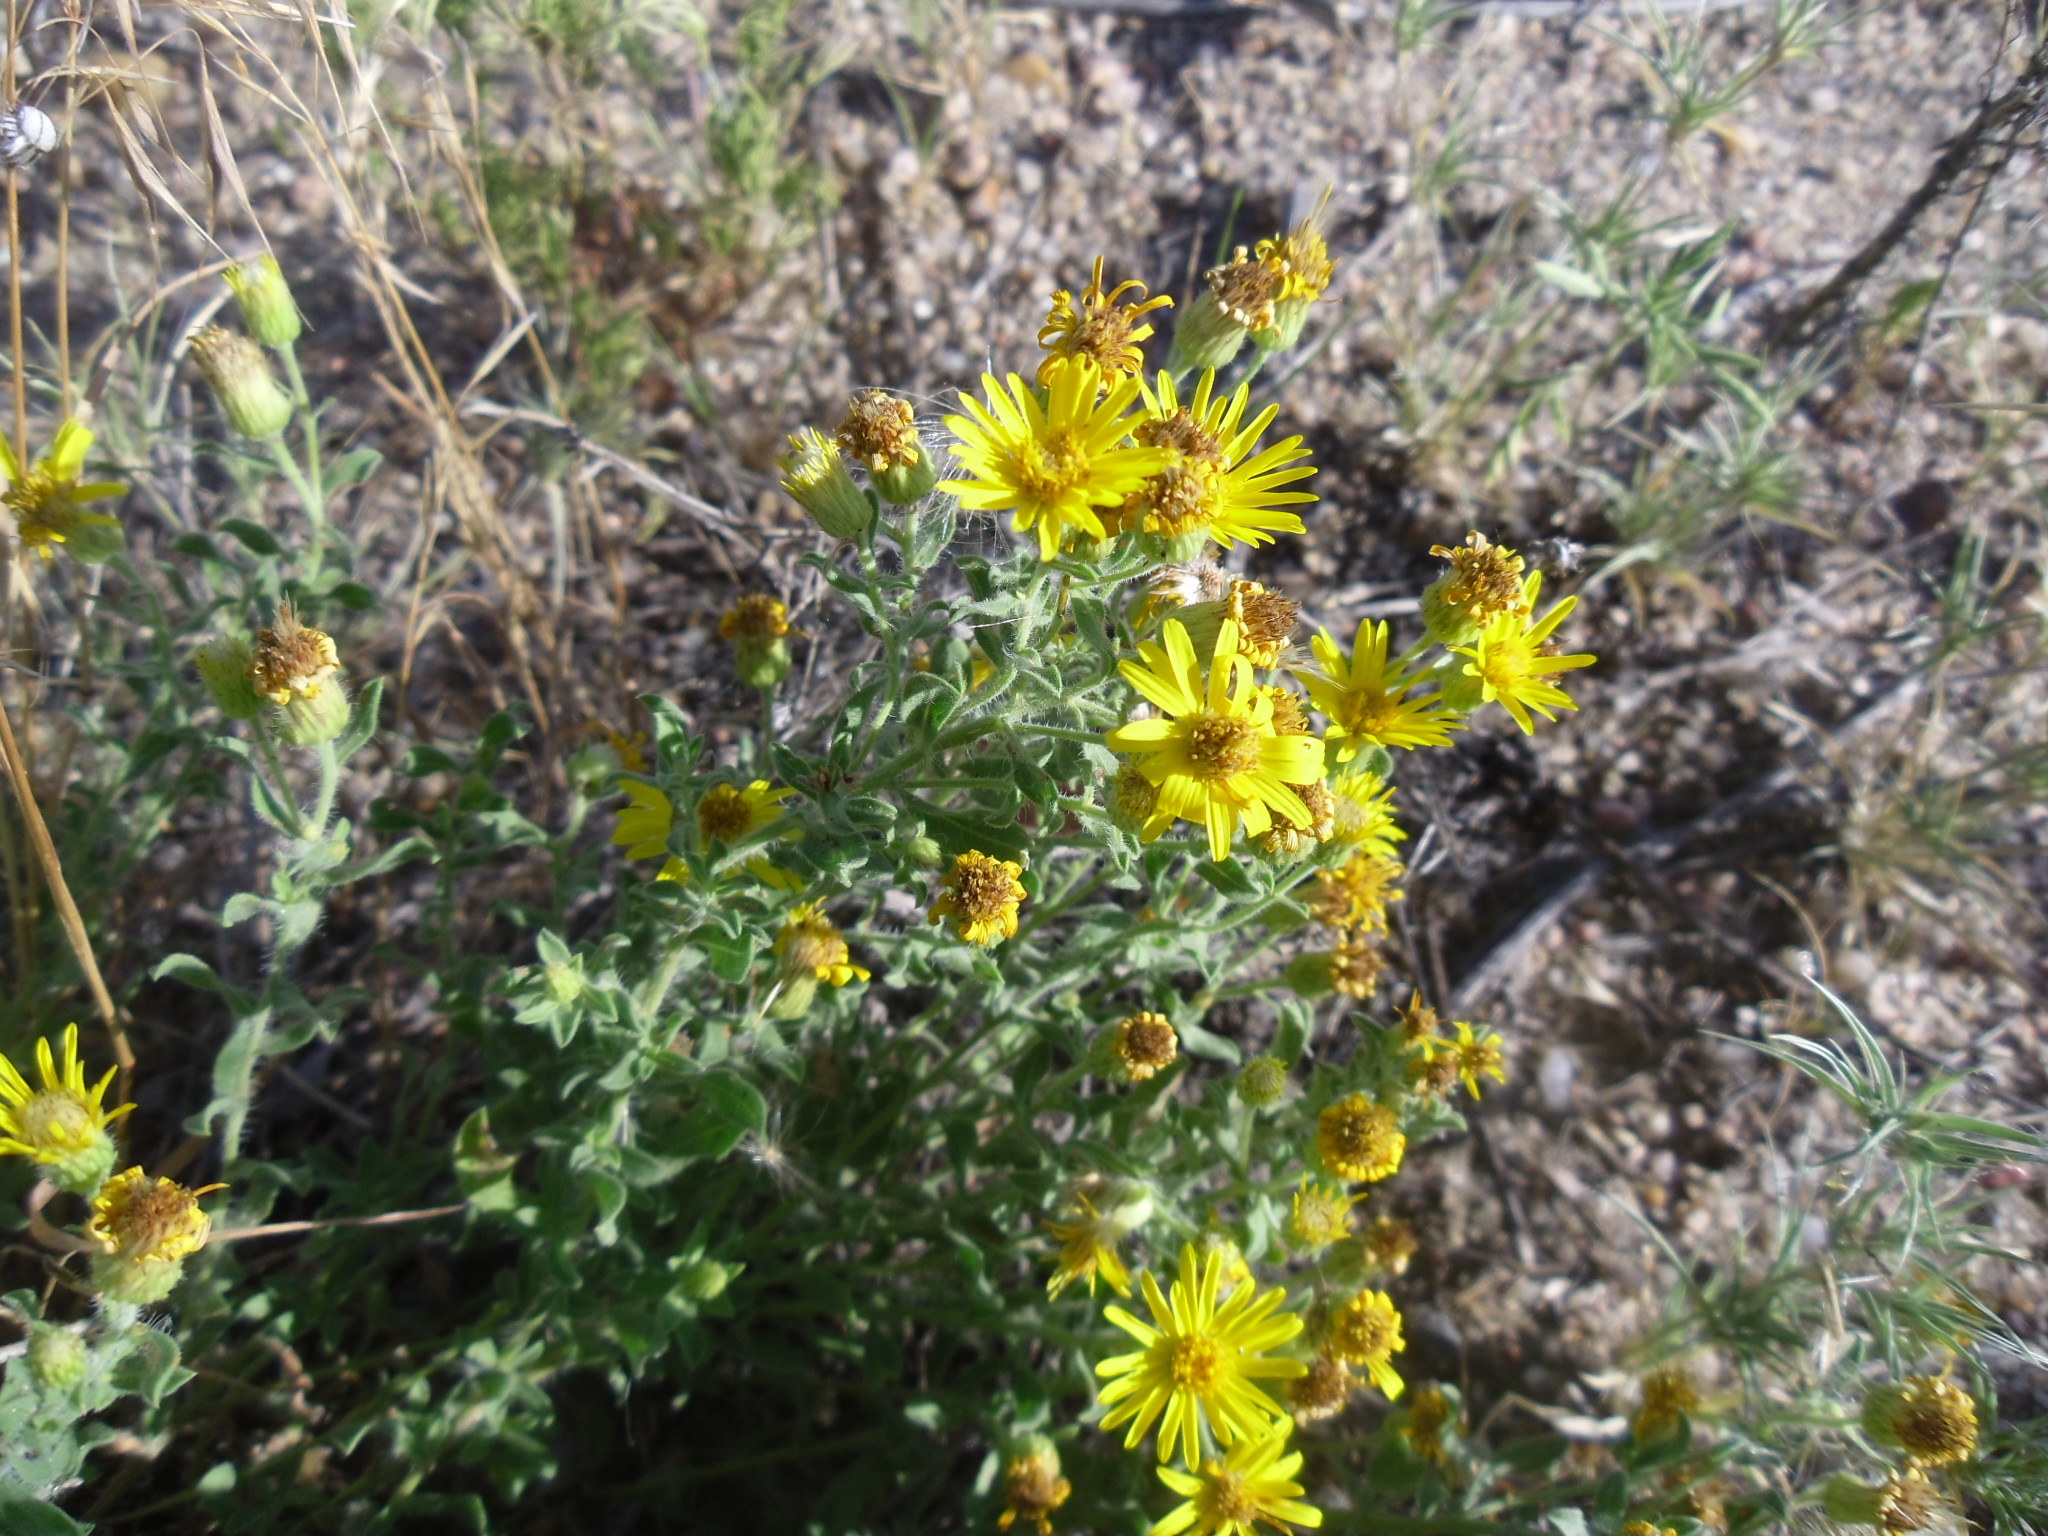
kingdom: Plantae
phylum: Tracheophyta
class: Magnoliopsida
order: Asterales
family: Asteraceae
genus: Heterotheca
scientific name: Heterotheca villosa
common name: Hairy false goldenaster
